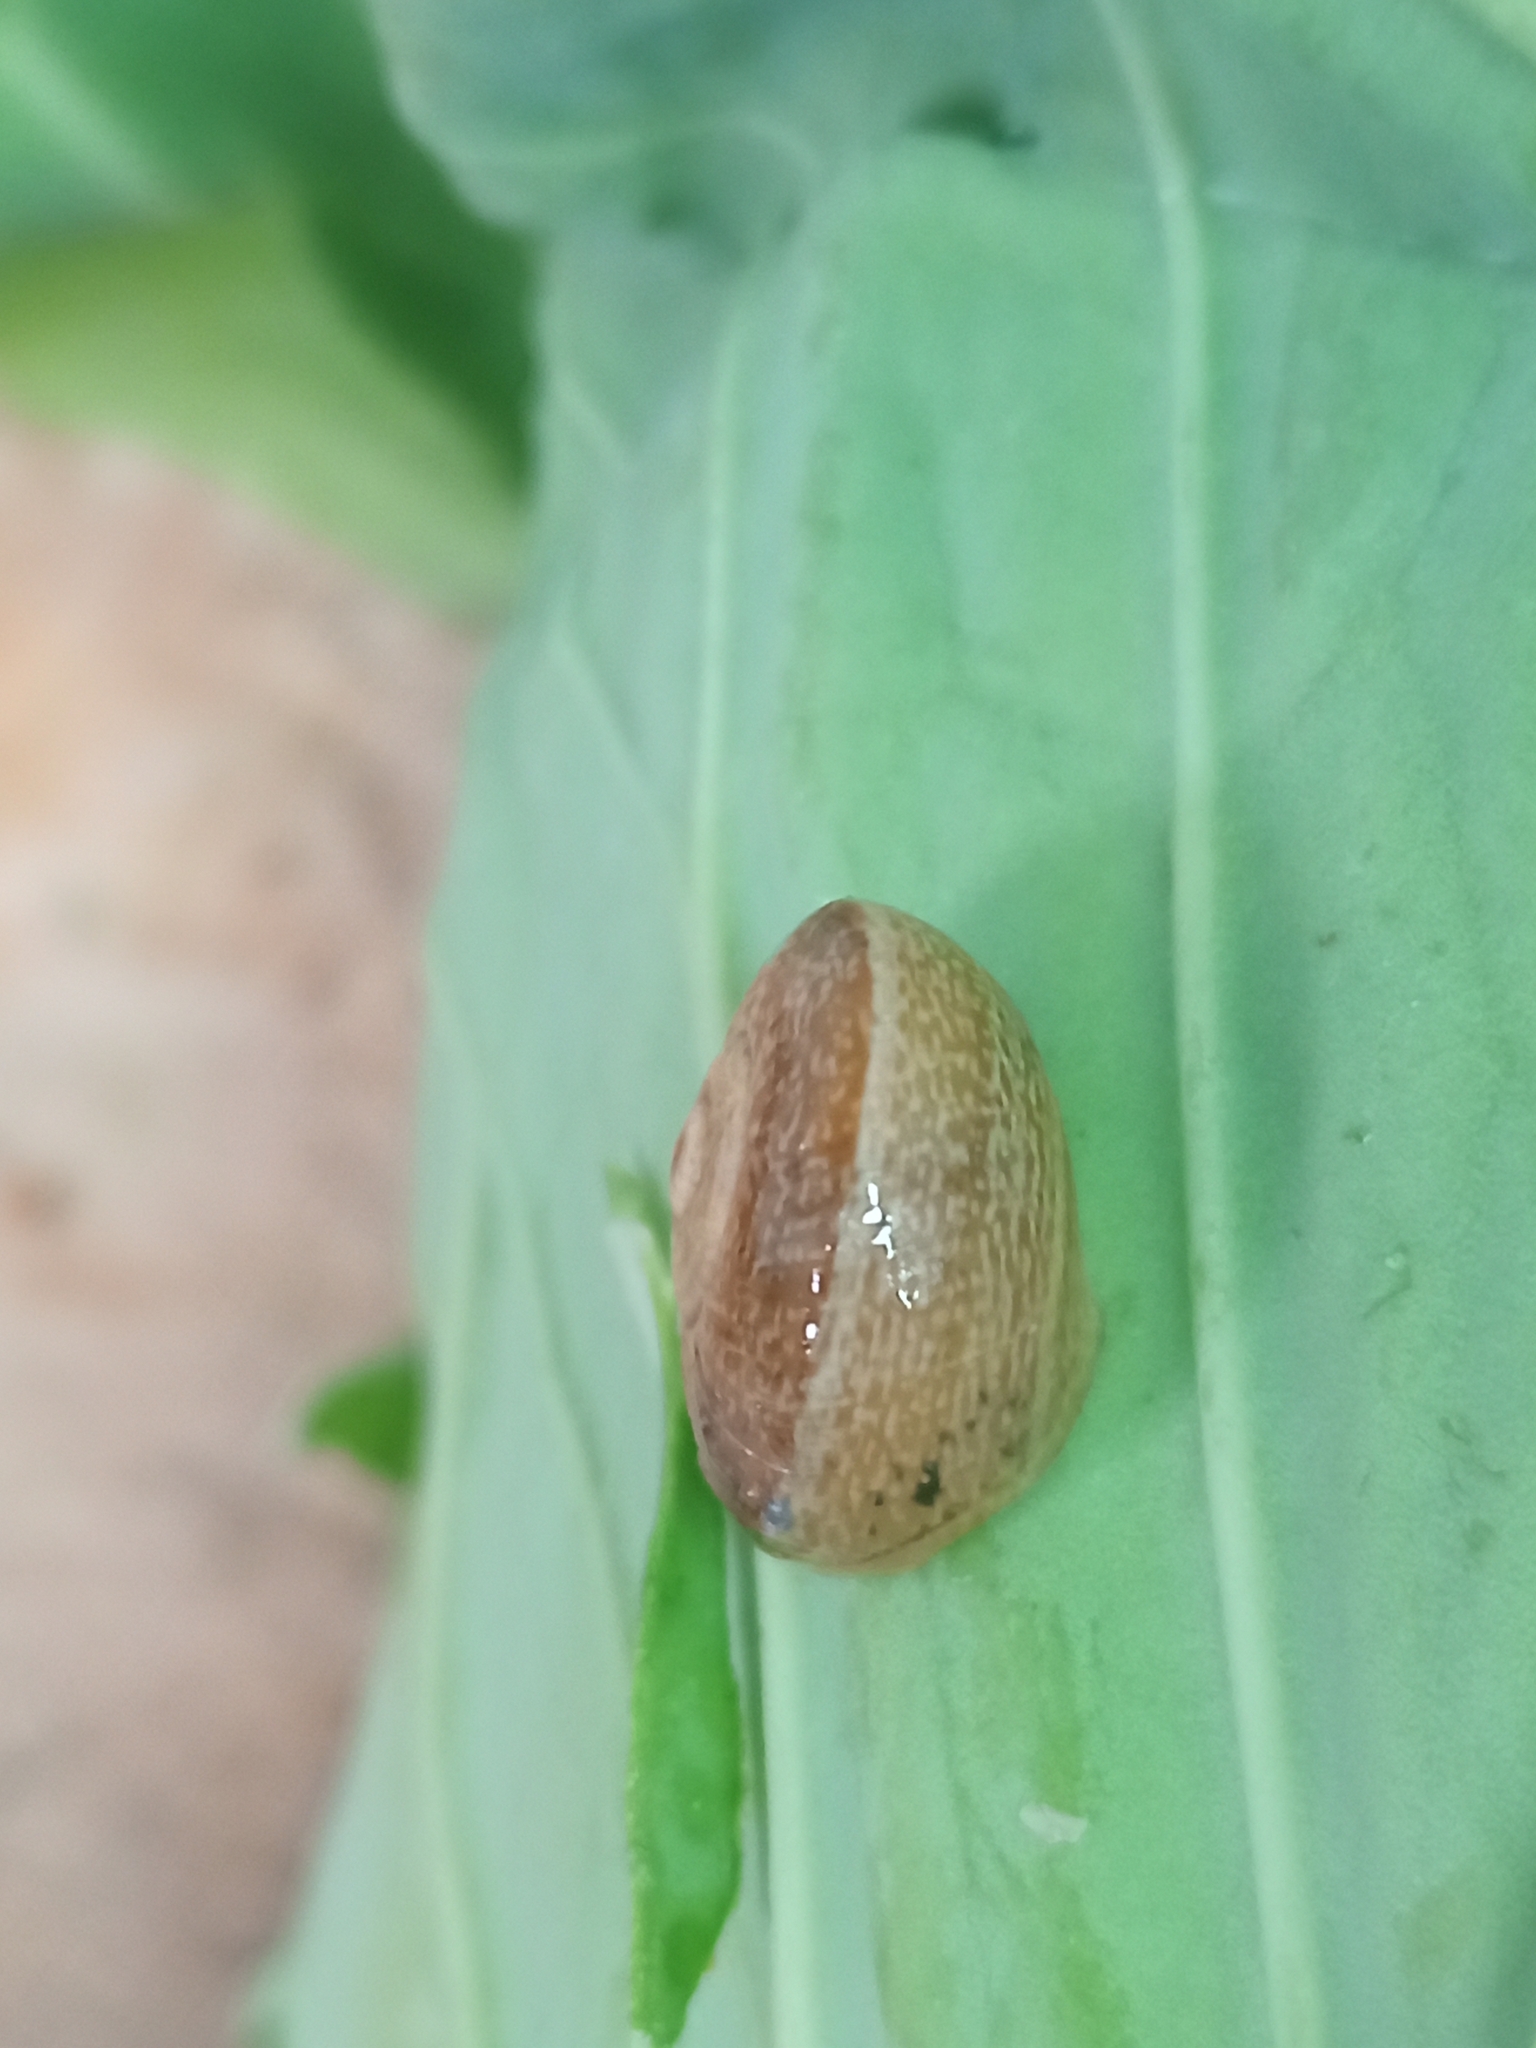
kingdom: Animalia
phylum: Mollusca
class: Gastropoda
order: Stylommatophora
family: Helicidae
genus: Otala
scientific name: Otala punctata
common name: Milk snail
